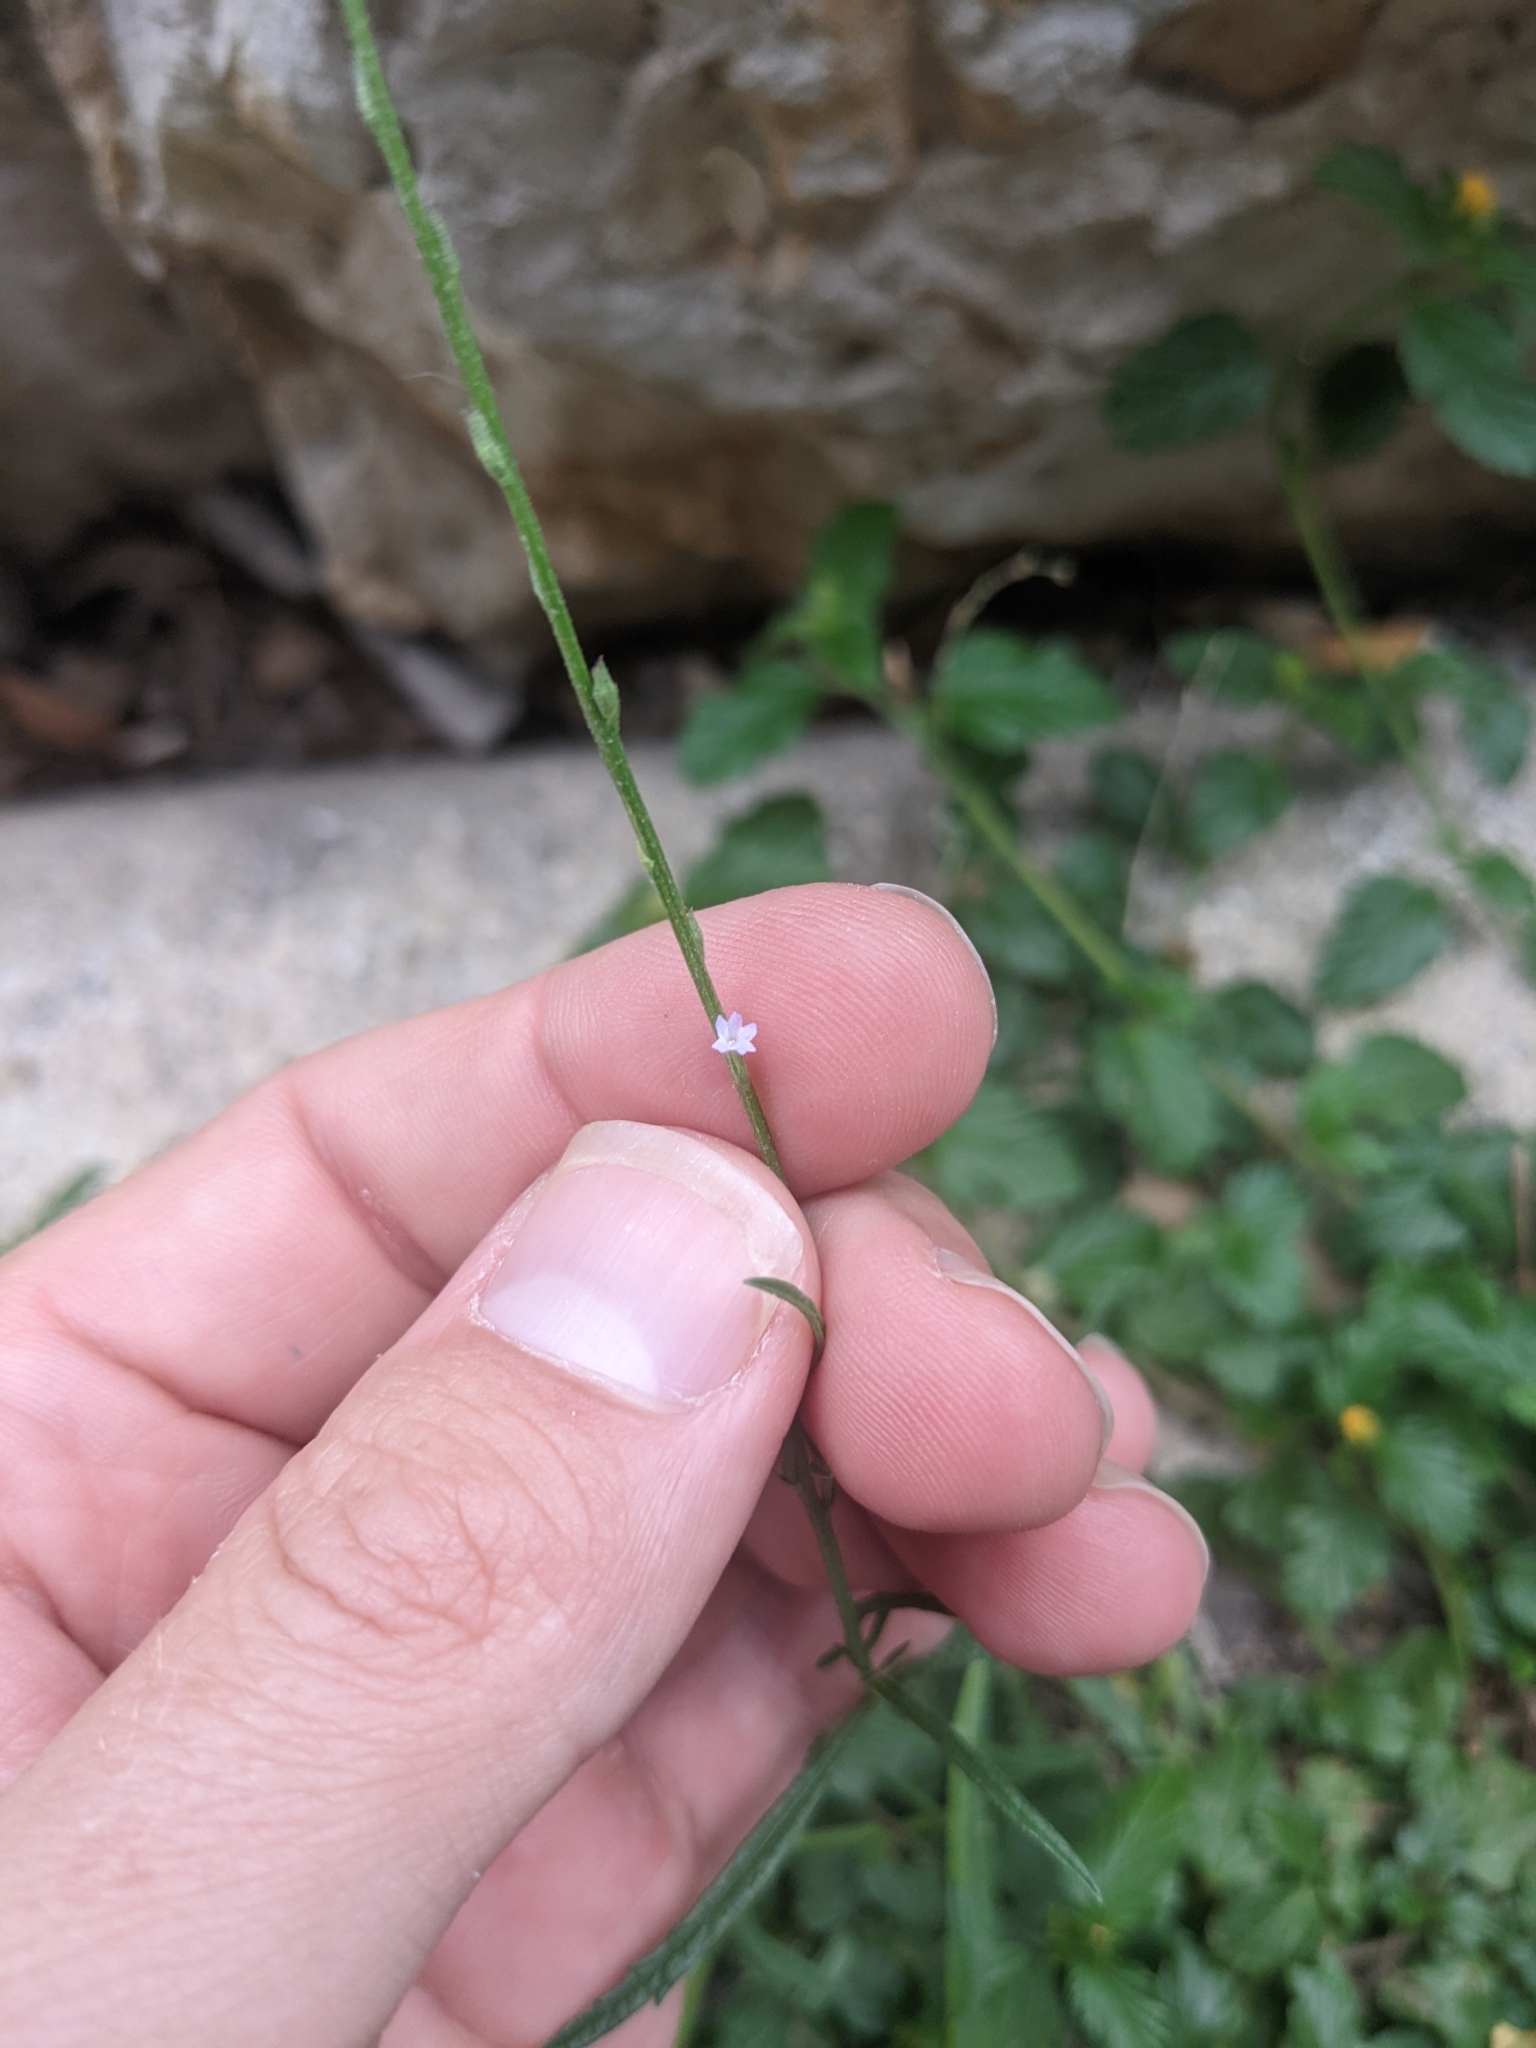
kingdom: Plantae
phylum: Tracheophyta
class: Magnoliopsida
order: Lamiales
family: Verbenaceae
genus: Verbena
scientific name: Verbena halei
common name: Texas vervain
